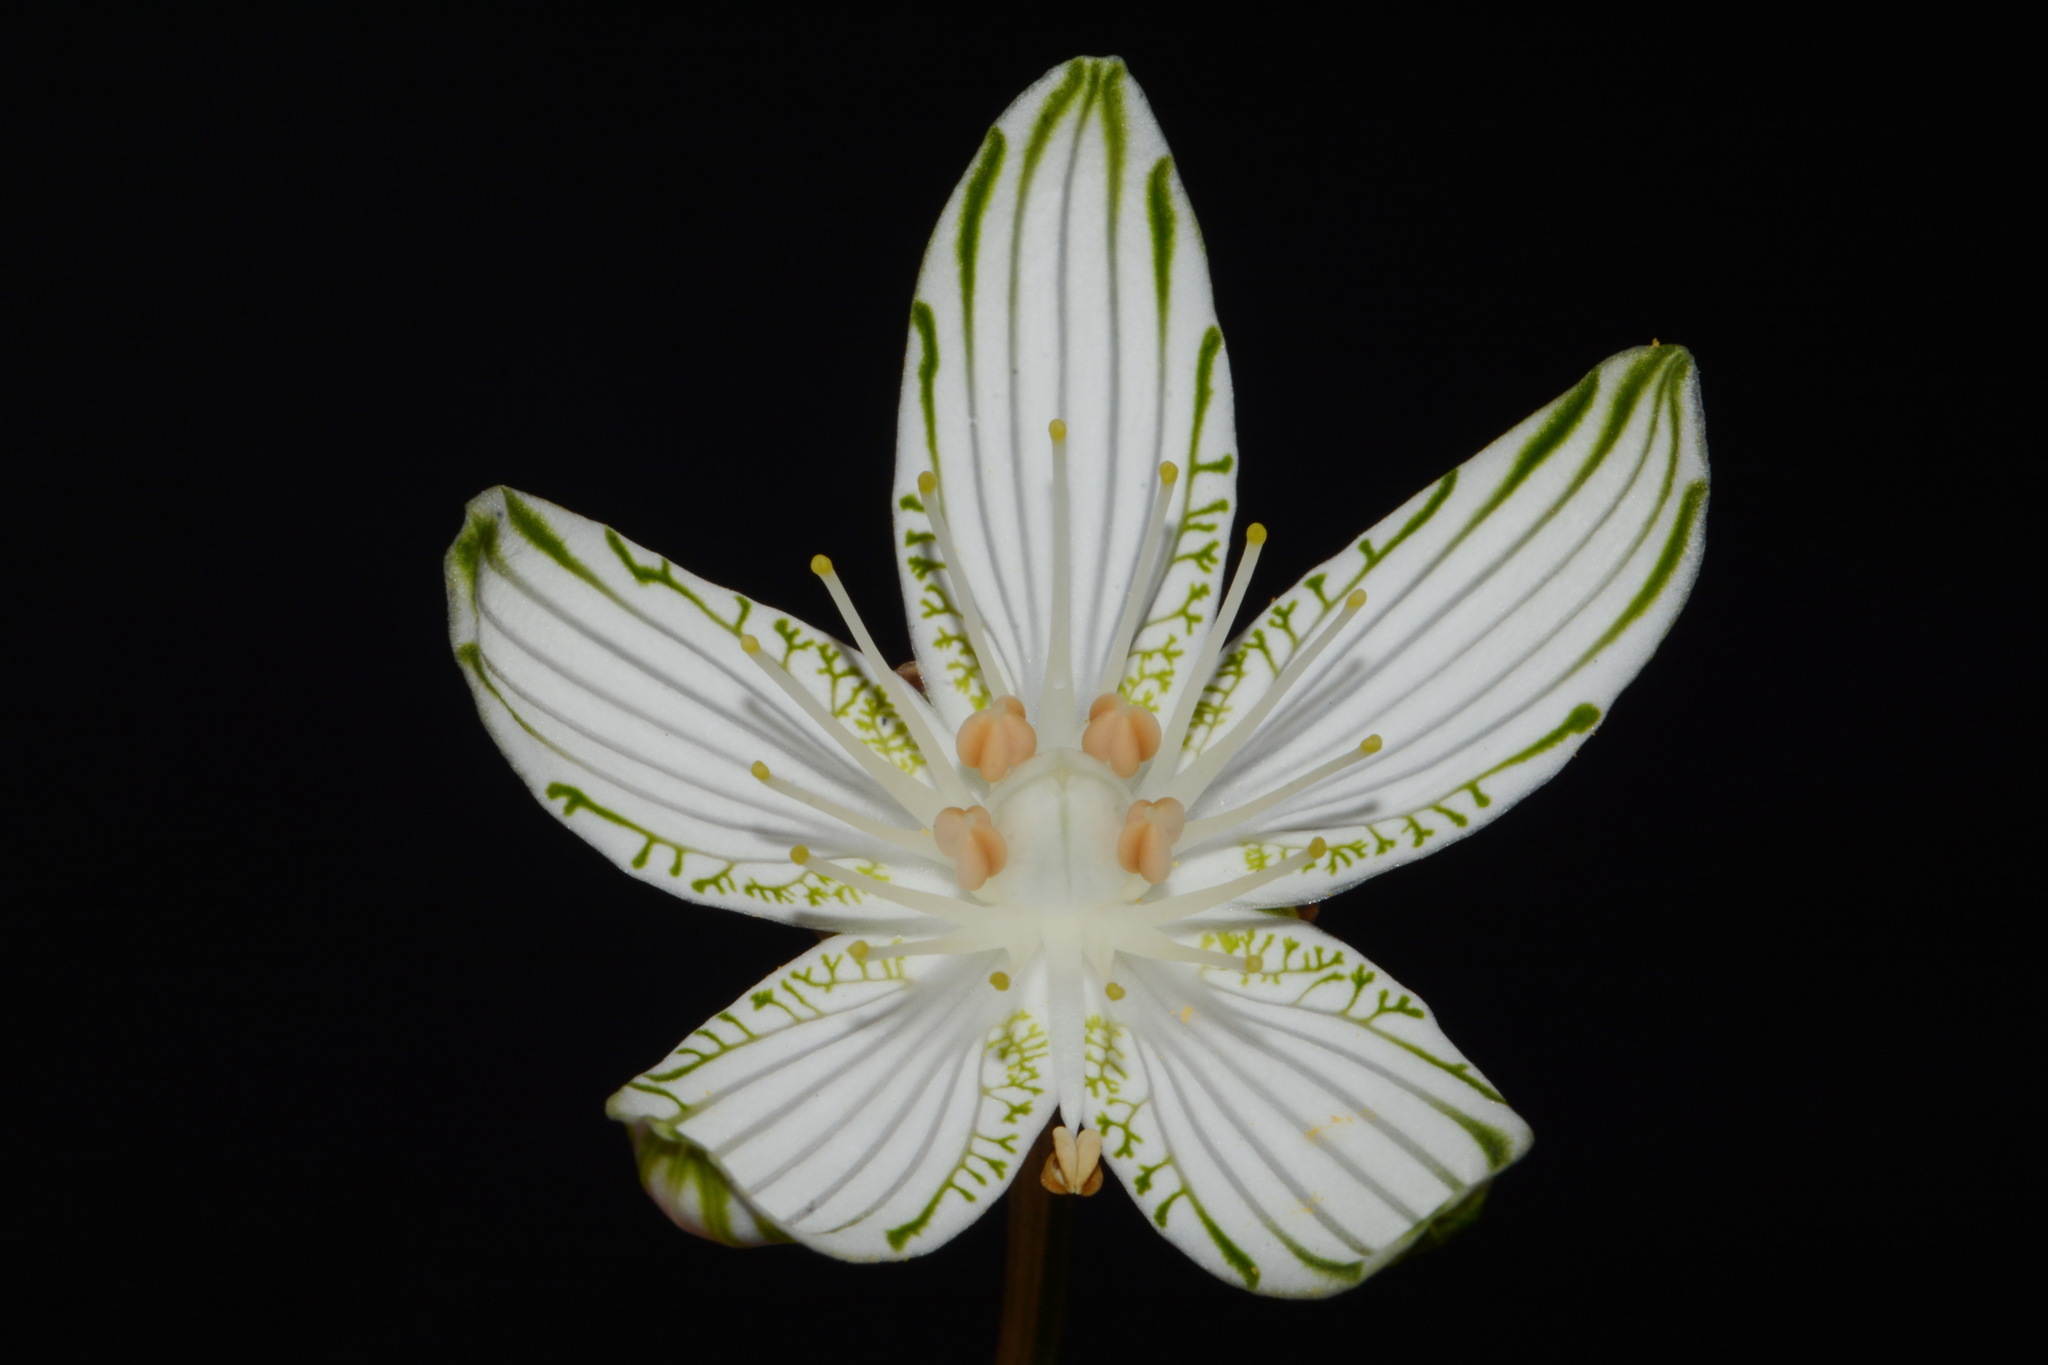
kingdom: Plantae
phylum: Tracheophyta
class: Magnoliopsida
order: Celastrales
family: Parnassiaceae
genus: Parnassia
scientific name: Parnassia grandifolia
